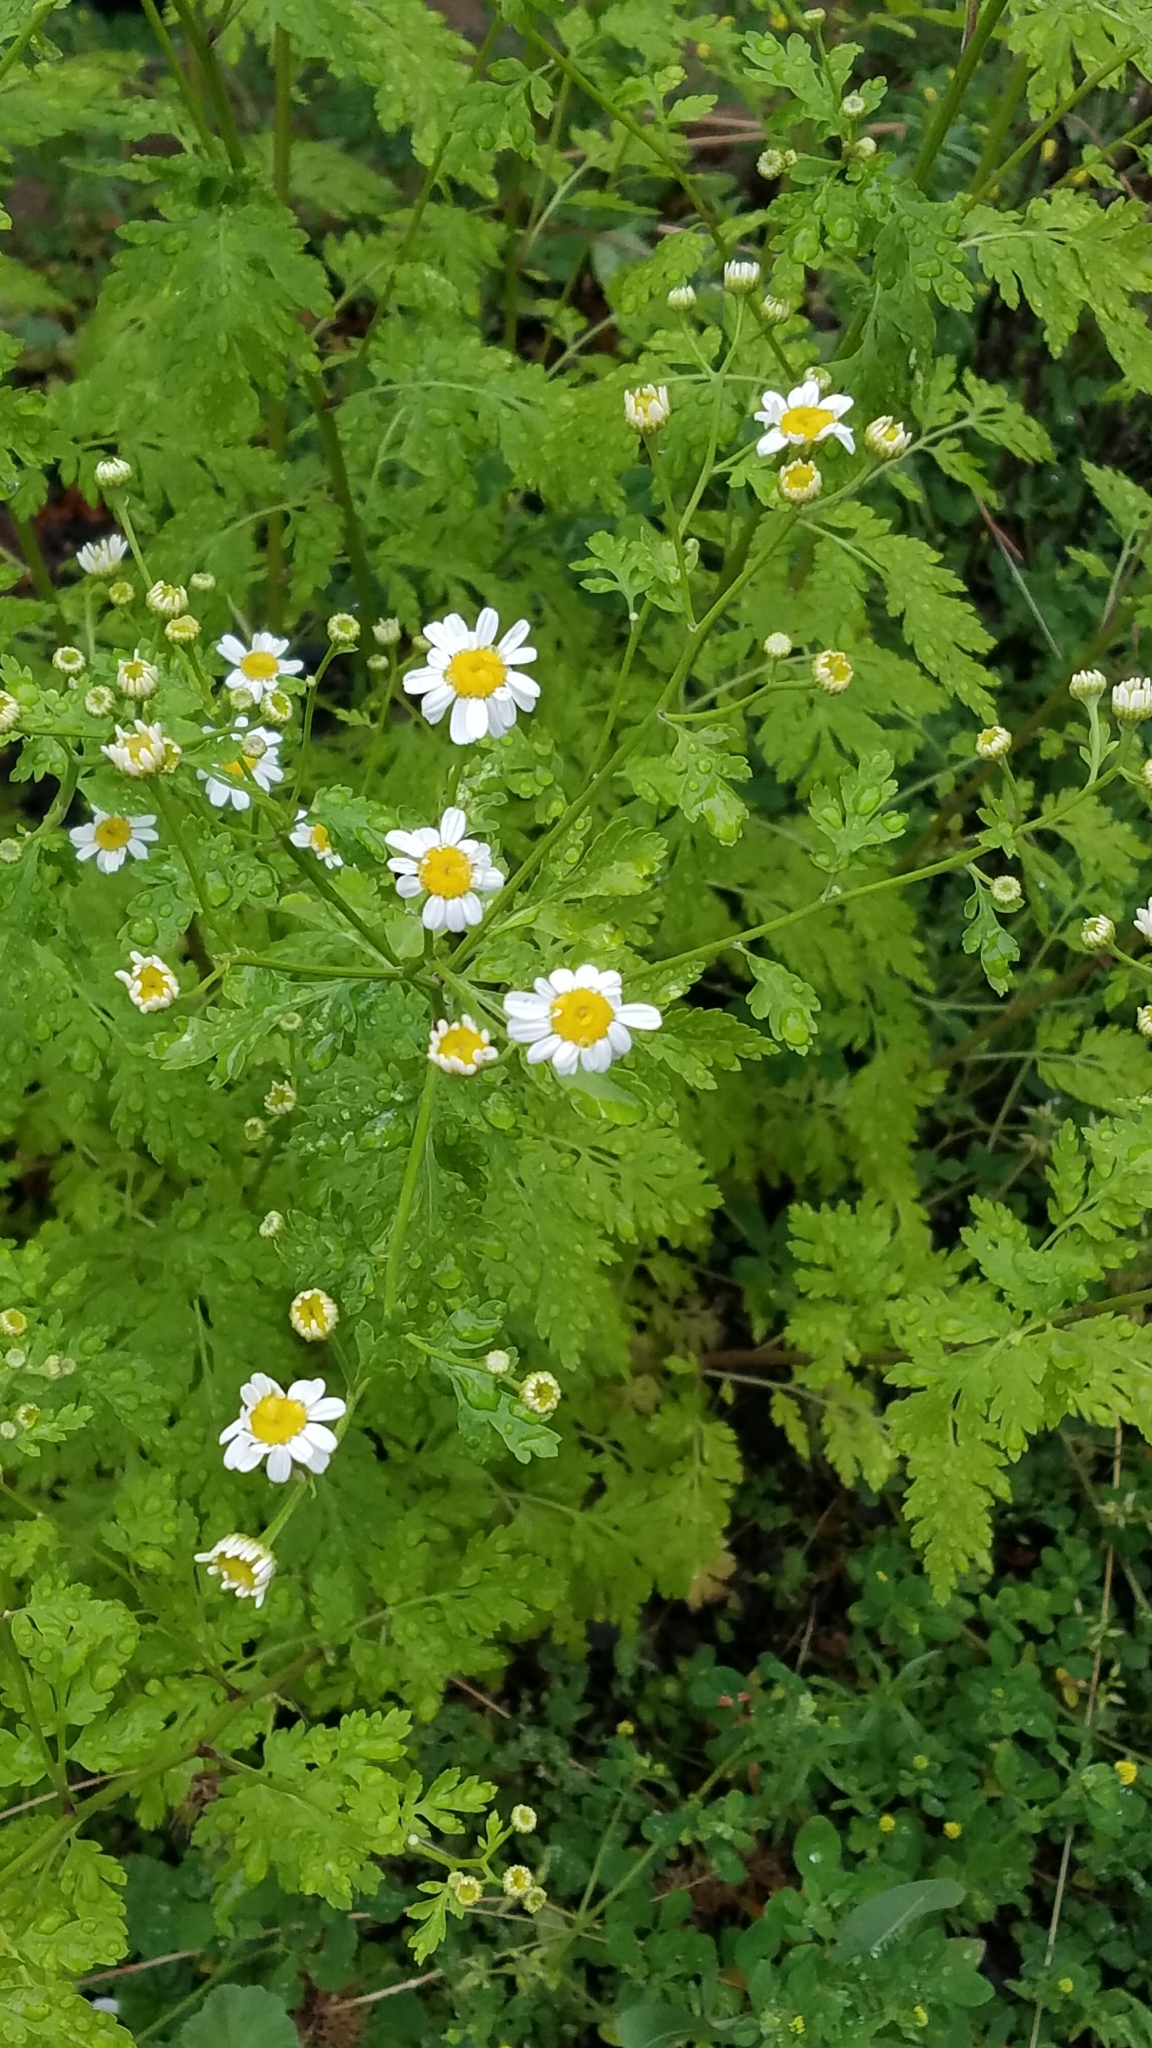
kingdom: Plantae
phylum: Tracheophyta
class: Magnoliopsida
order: Asterales
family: Asteraceae
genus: Tanacetum
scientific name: Tanacetum parthenium
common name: Feverfew
